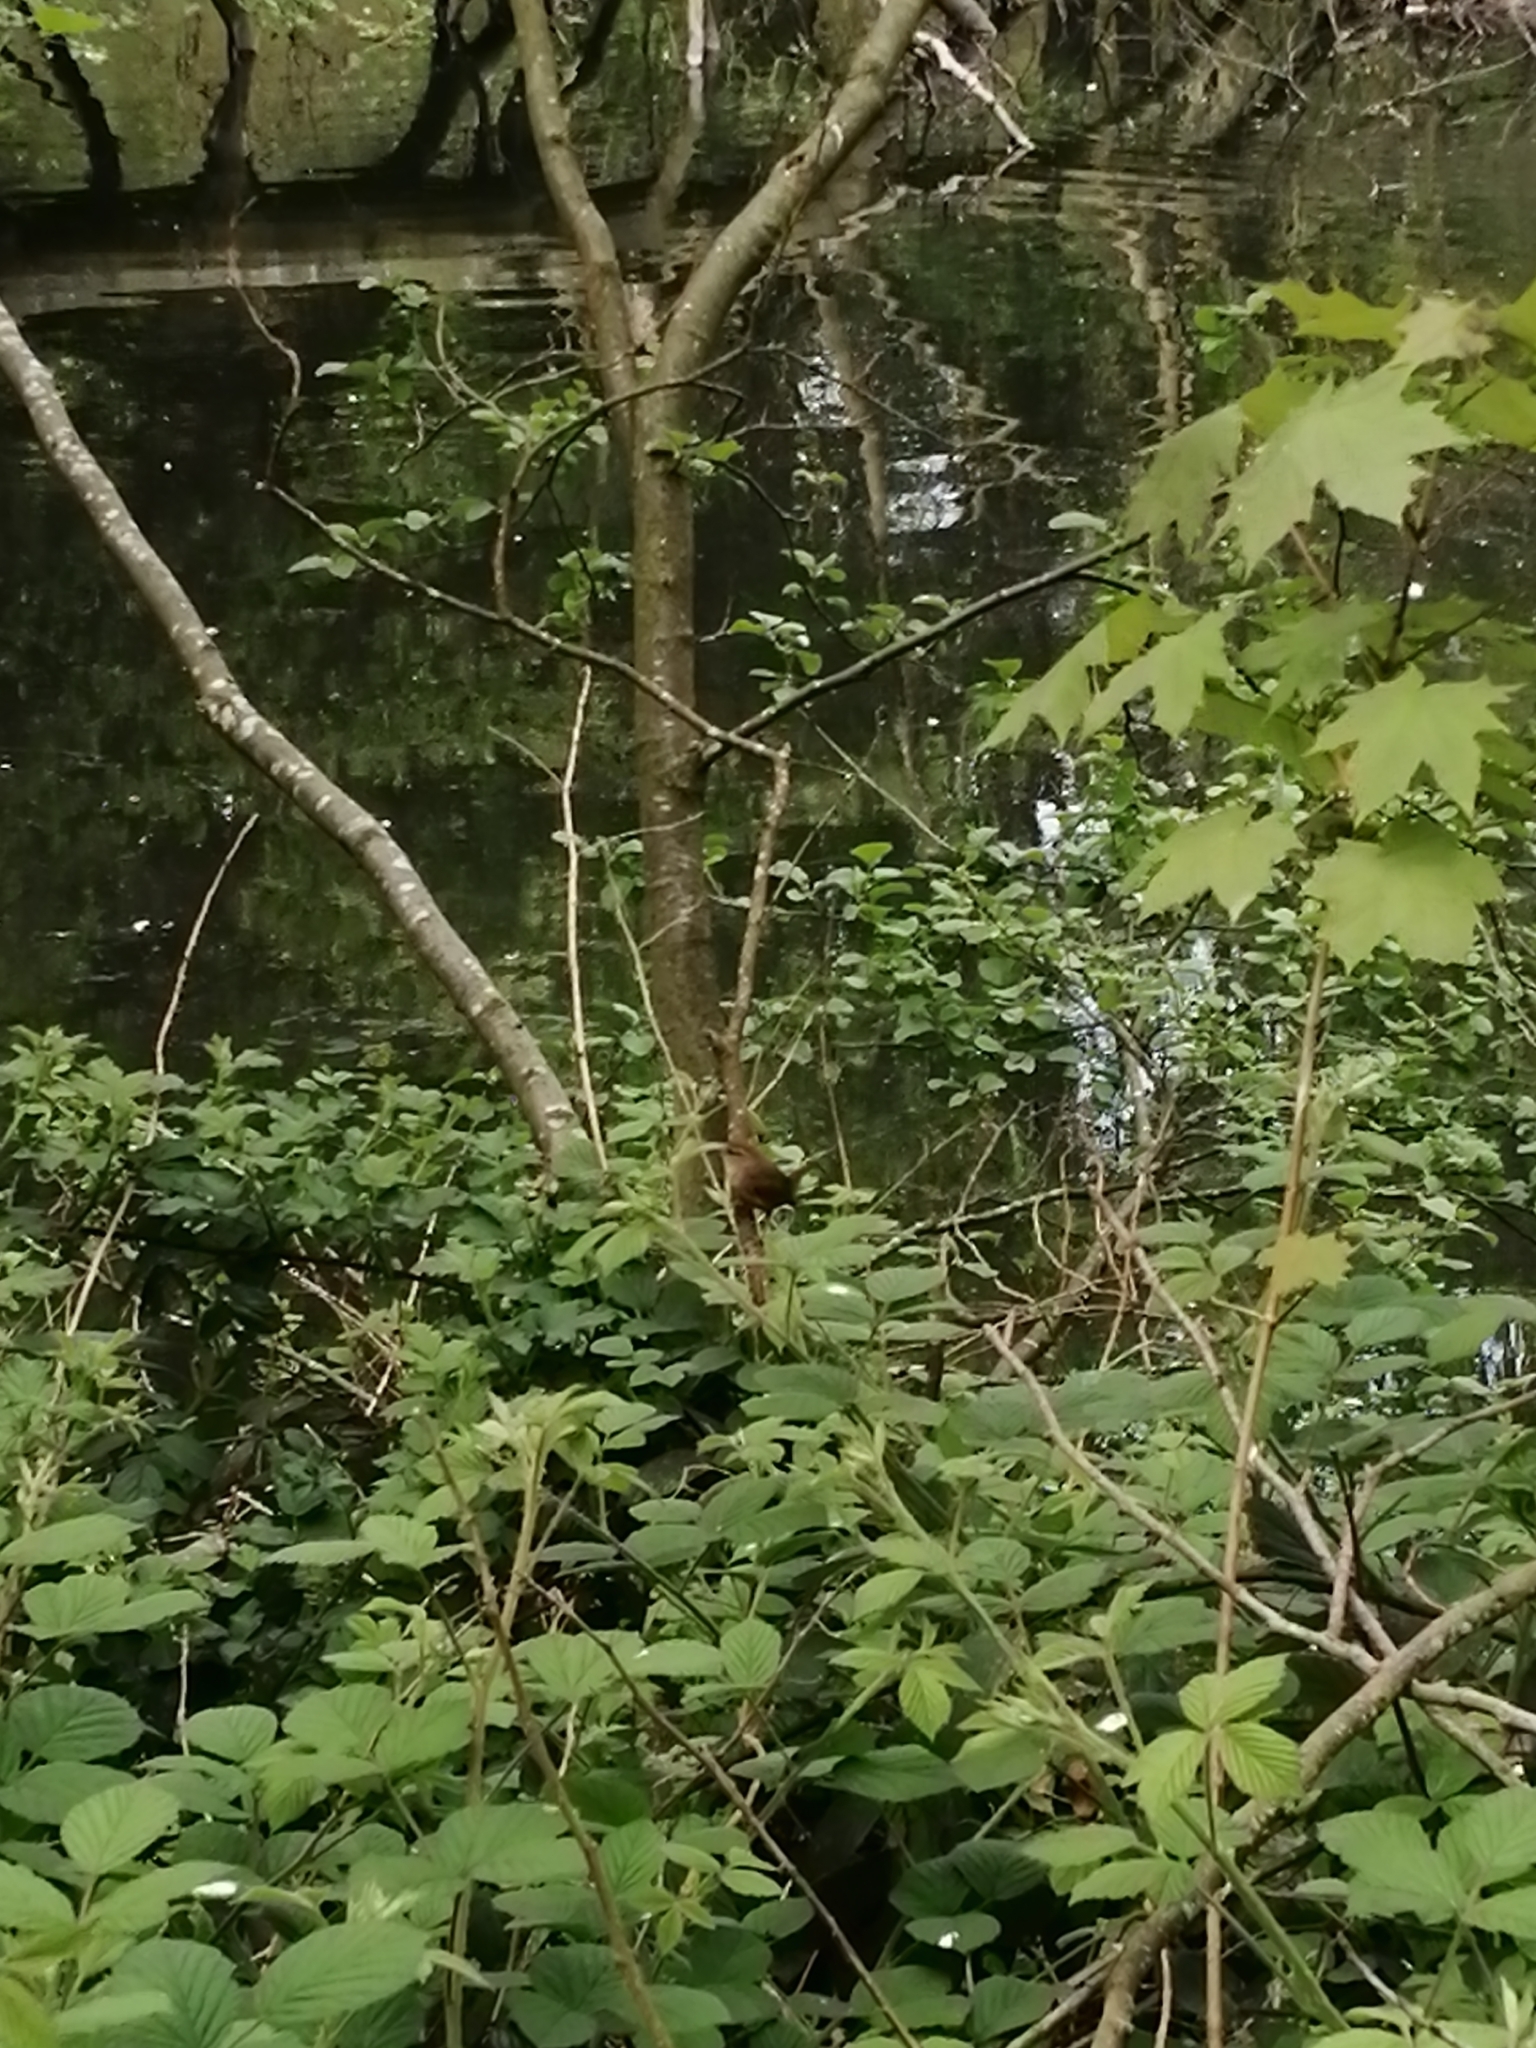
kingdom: Animalia
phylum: Chordata
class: Aves
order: Passeriformes
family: Troglodytidae
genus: Troglodytes
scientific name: Troglodytes troglodytes
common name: Eurasian wren
